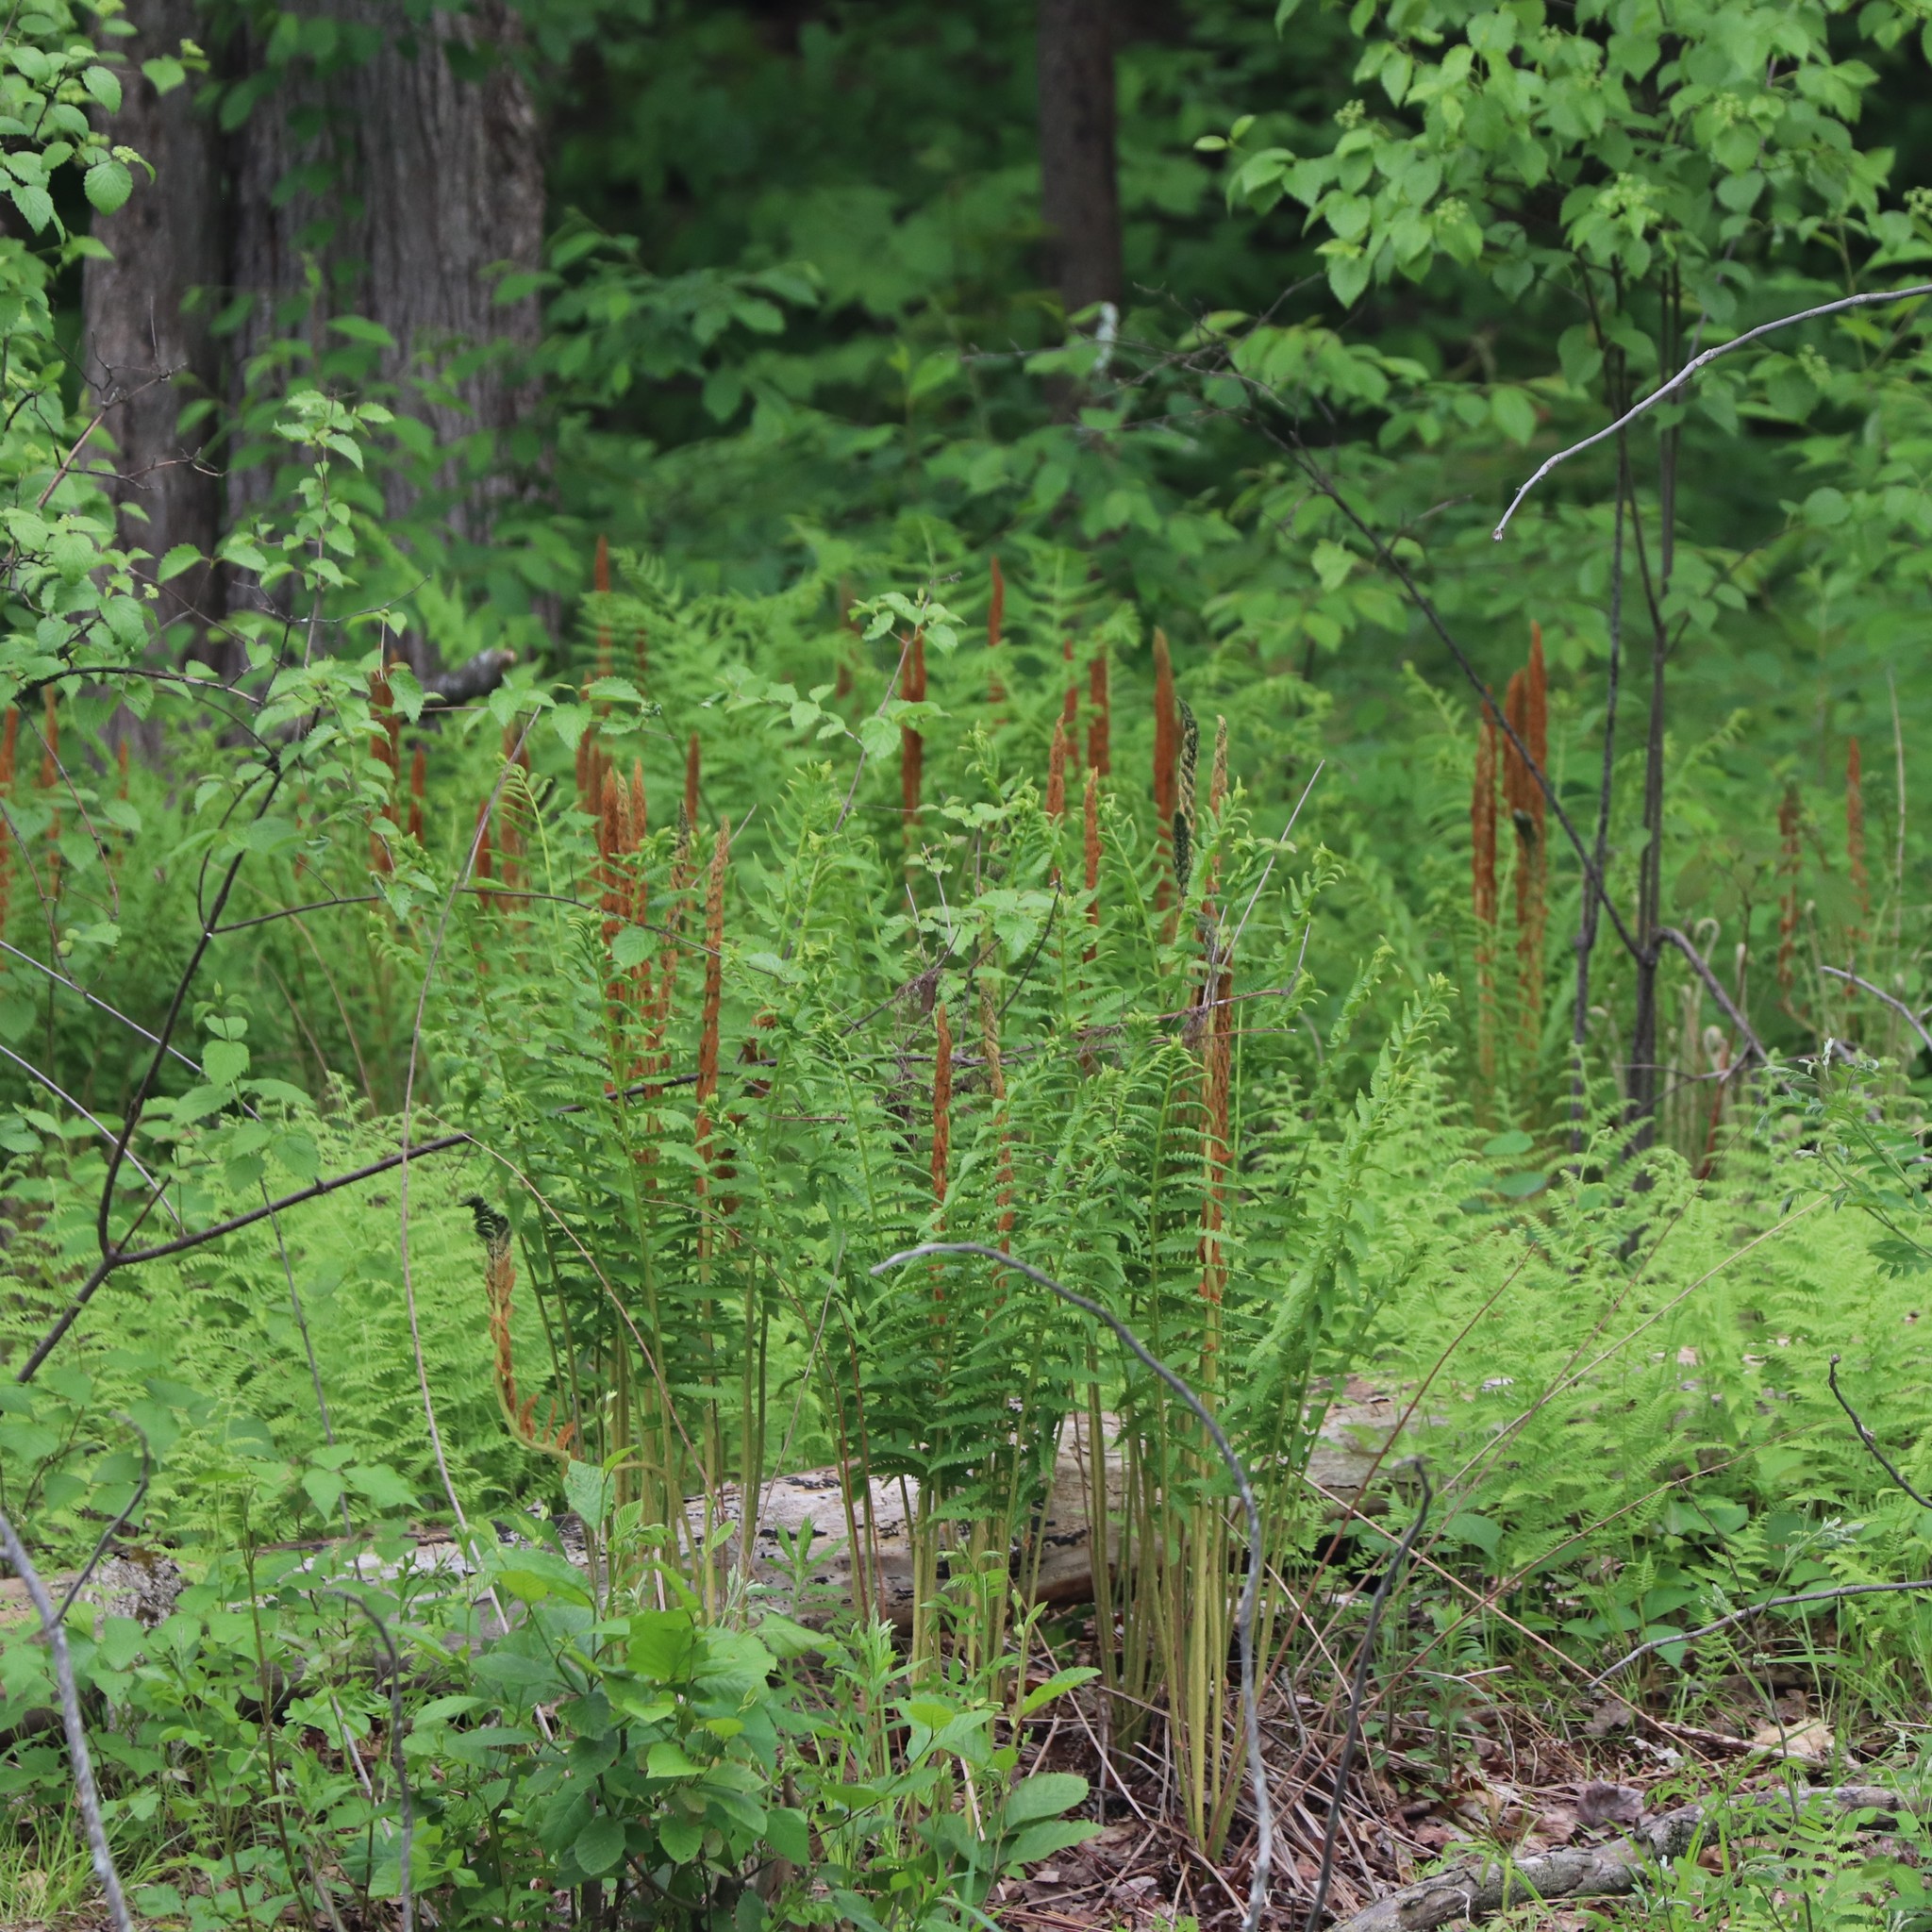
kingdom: Plantae
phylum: Tracheophyta
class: Polypodiopsida
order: Osmundales
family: Osmundaceae
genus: Osmundastrum
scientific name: Osmundastrum cinnamomeum
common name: Cinnamon fern
